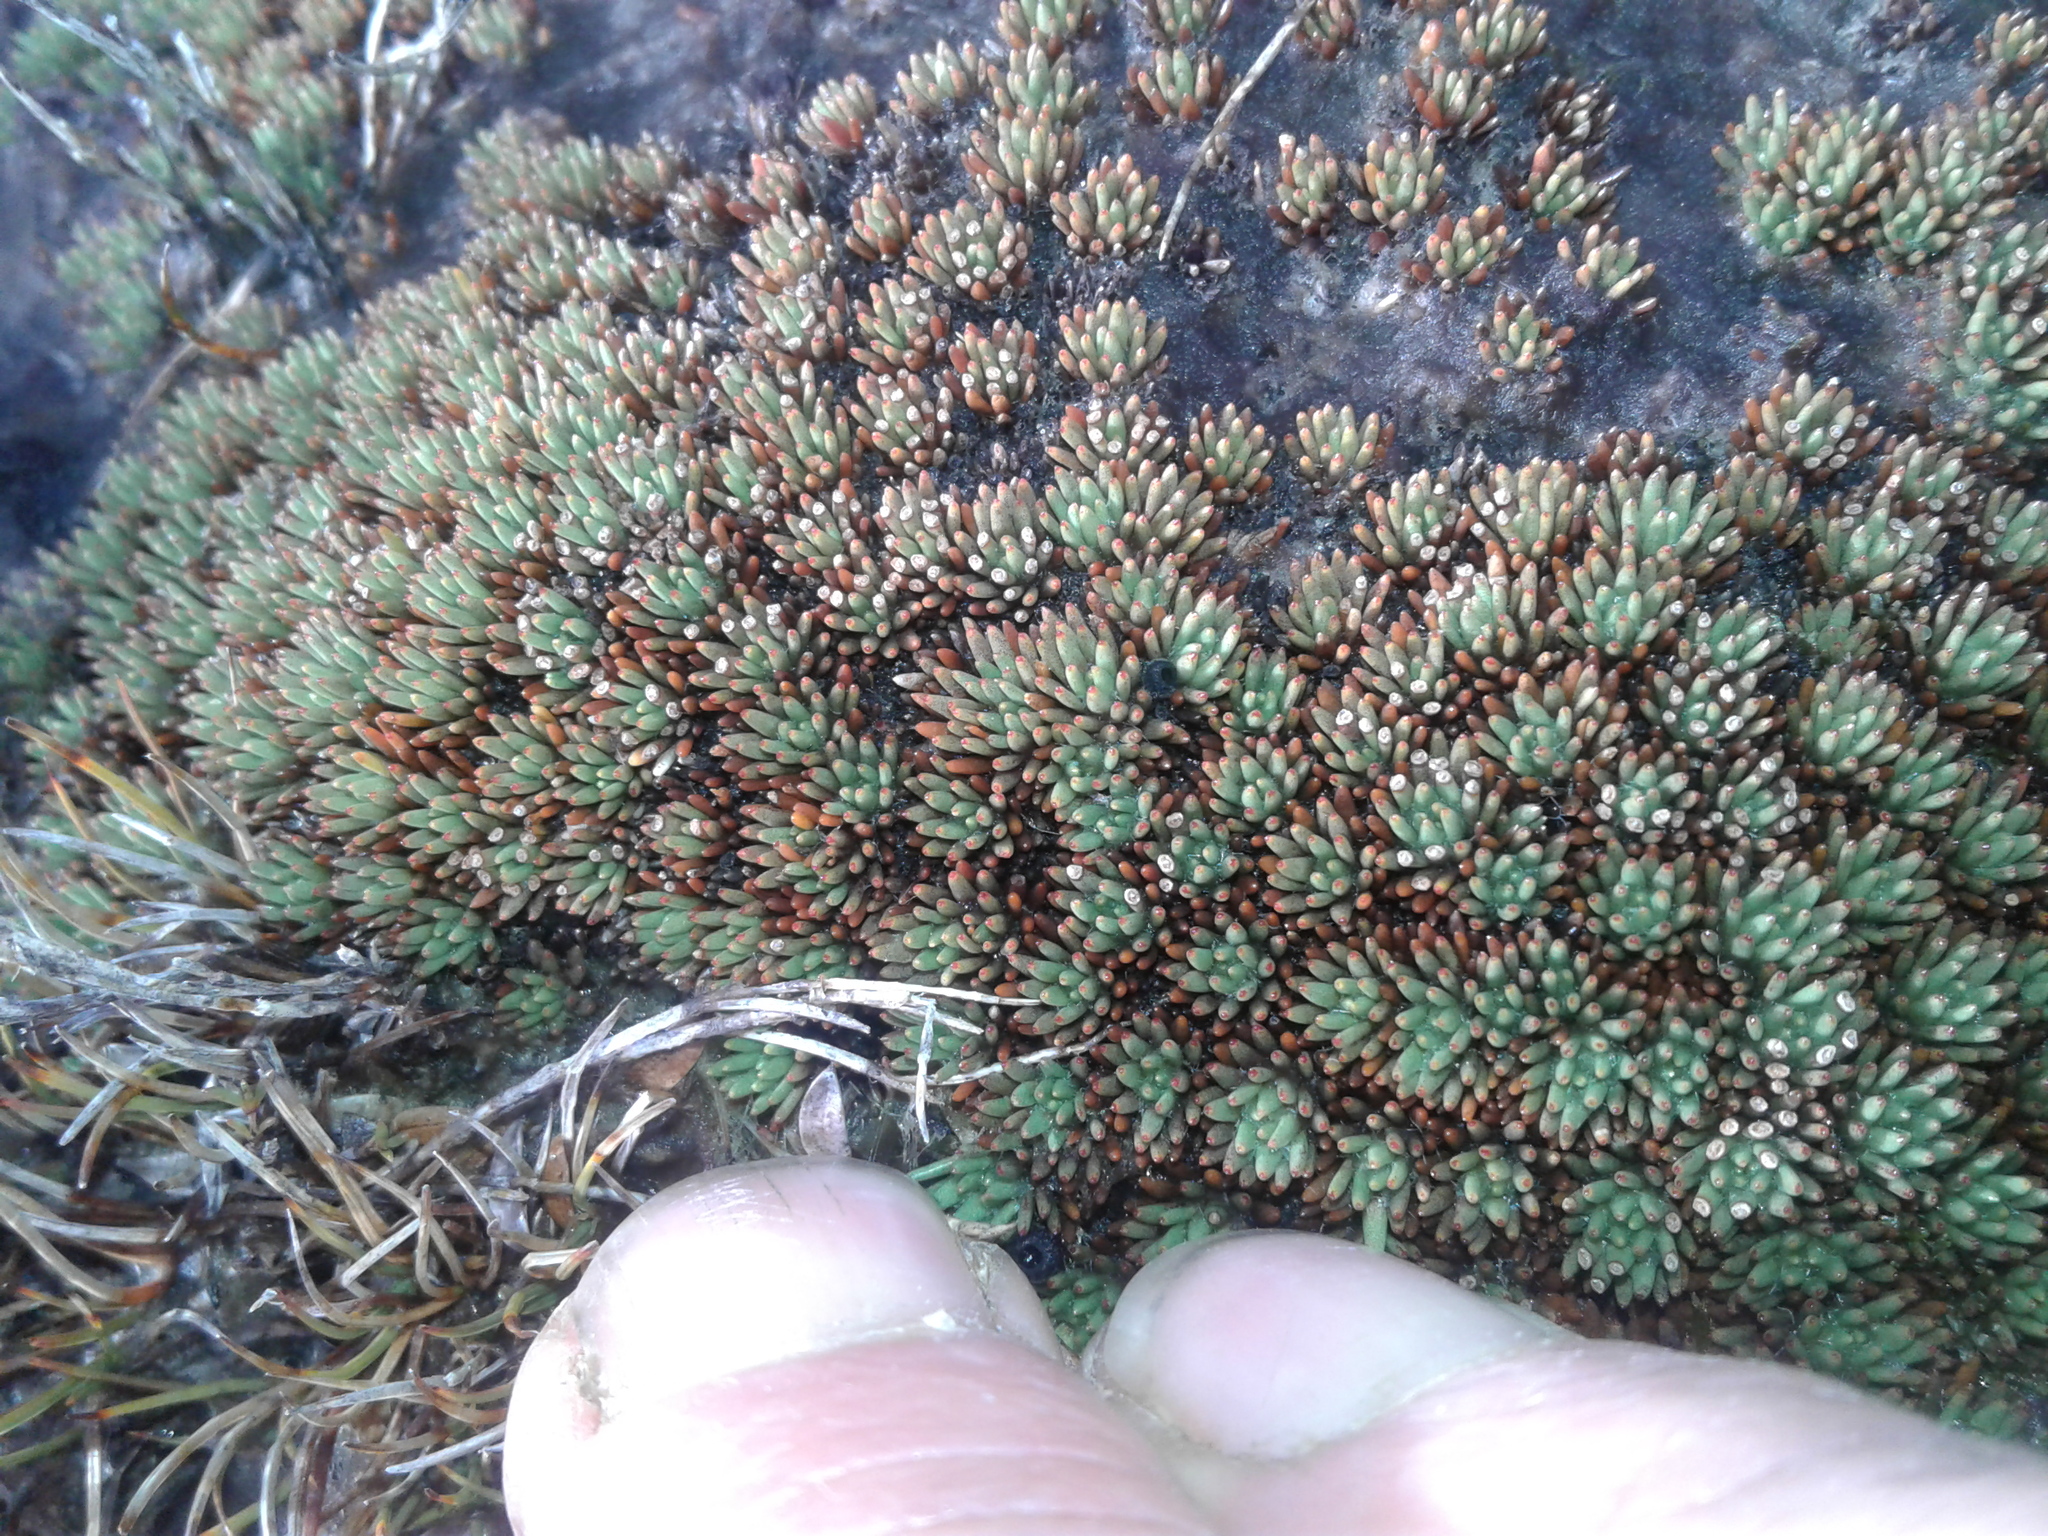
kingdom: Plantae
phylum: Tracheophyta
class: Magnoliopsida
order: Asterales
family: Stylidiaceae
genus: Donatia
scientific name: Donatia novae-zelandiae
